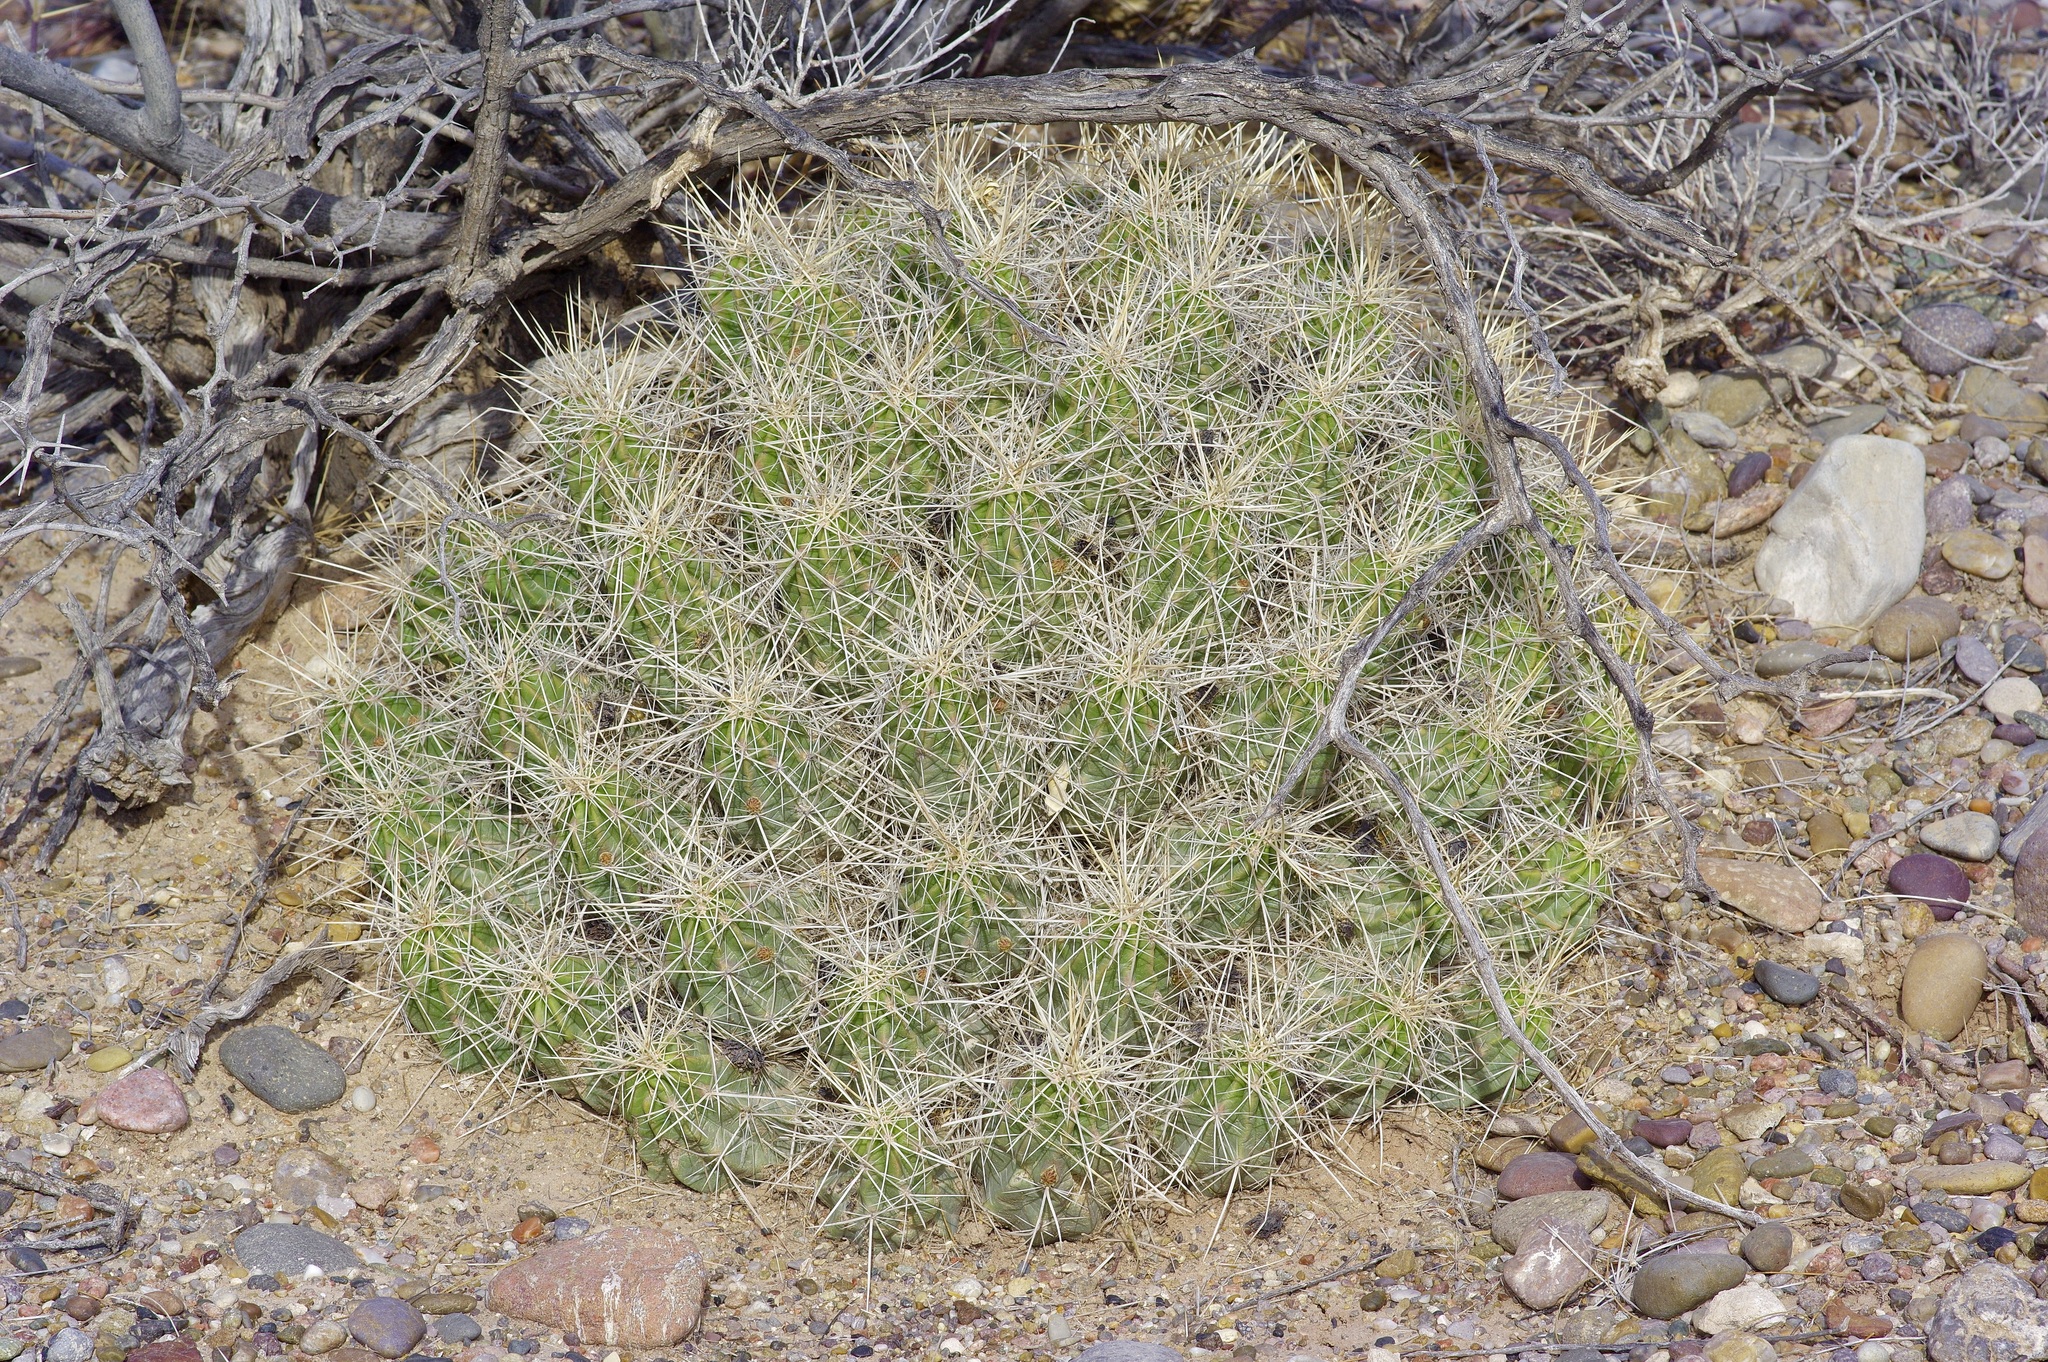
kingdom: Plantae
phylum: Tracheophyta
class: Magnoliopsida
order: Caryophyllales
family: Cactaceae
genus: Echinocereus
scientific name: Echinocereus enneacanthus
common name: Pitaya
